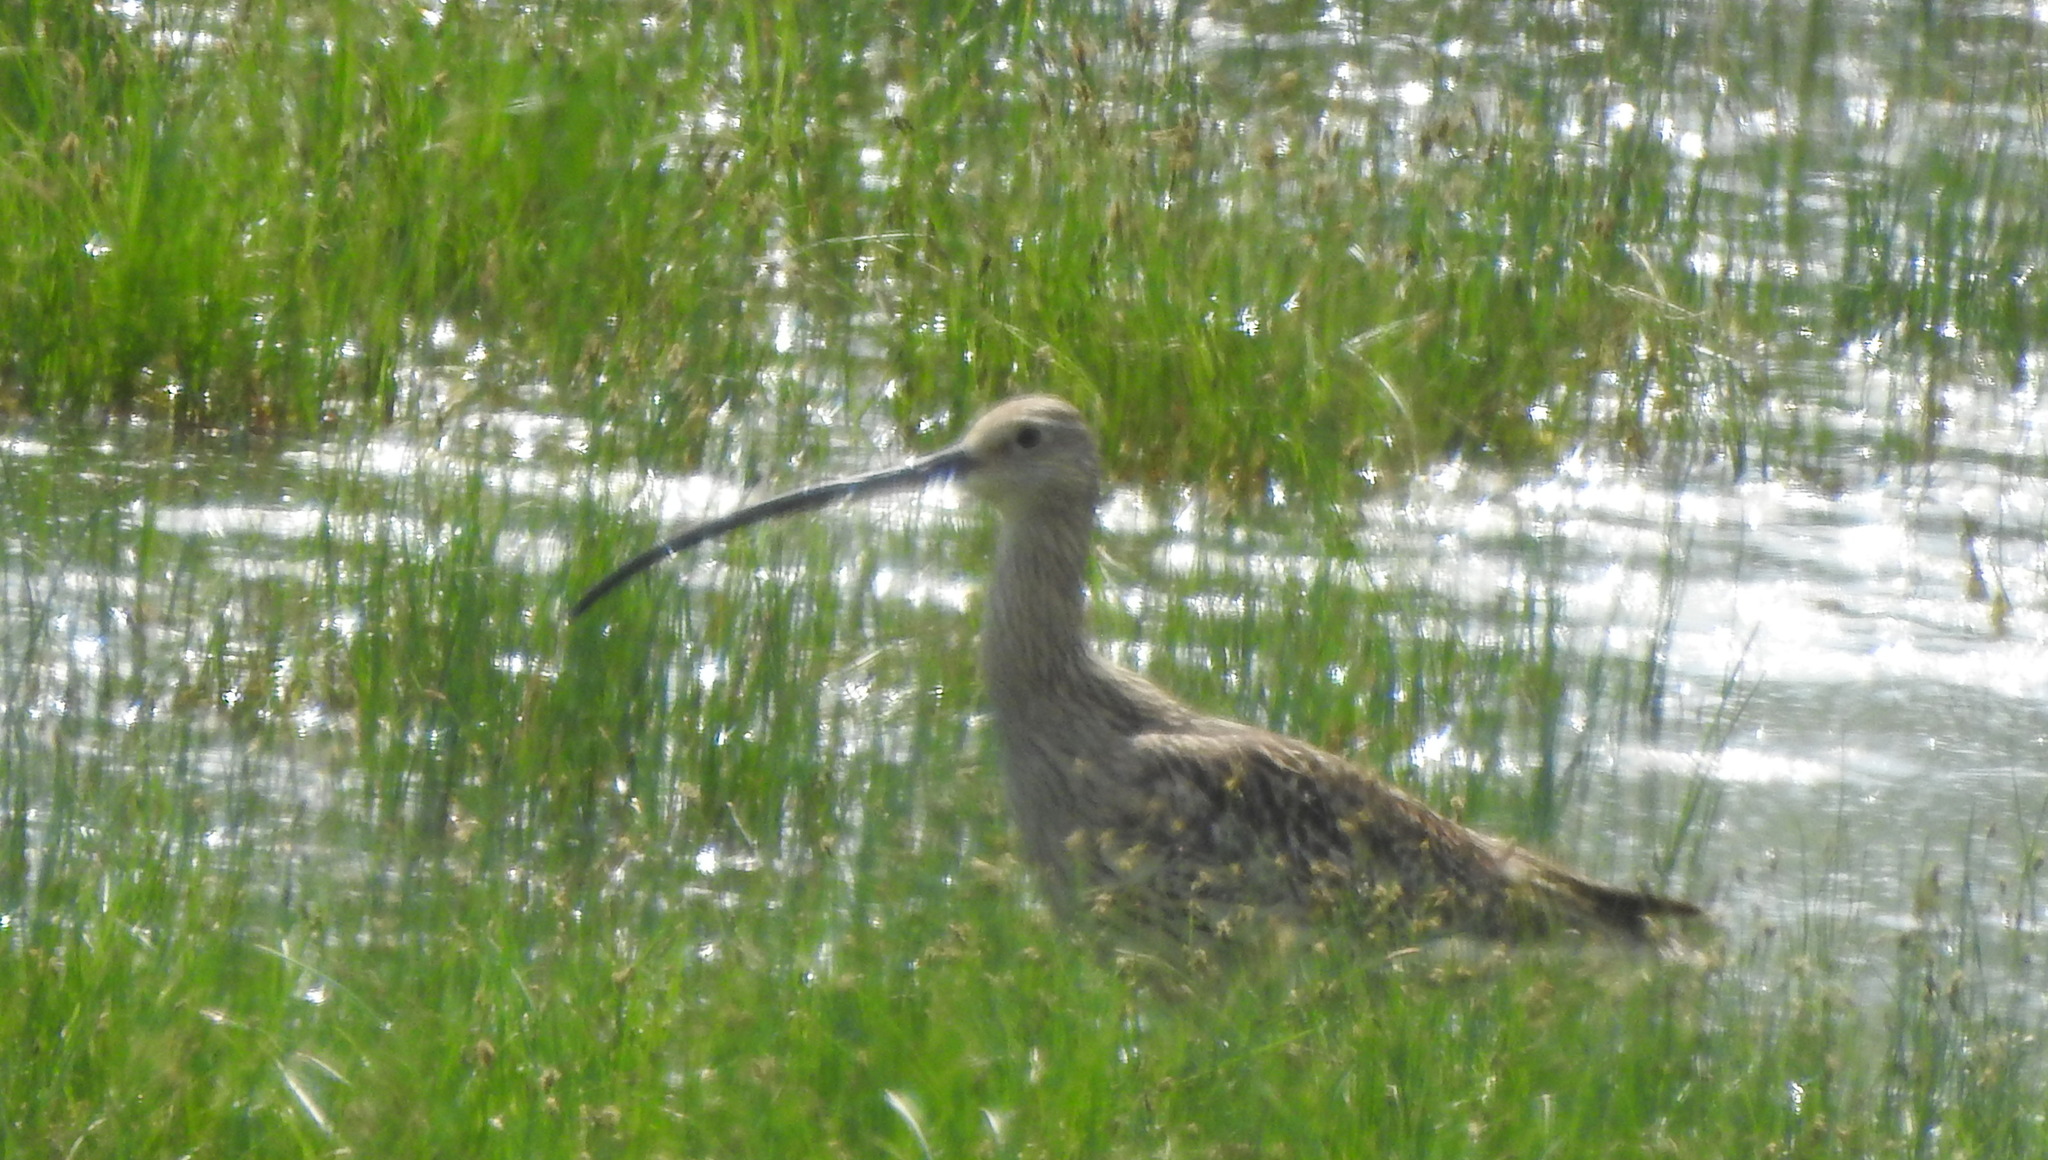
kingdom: Animalia
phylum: Chordata
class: Aves
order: Charadriiformes
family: Scolopacidae
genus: Numenius
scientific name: Numenius madagascariensis
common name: Far eastern curlew
